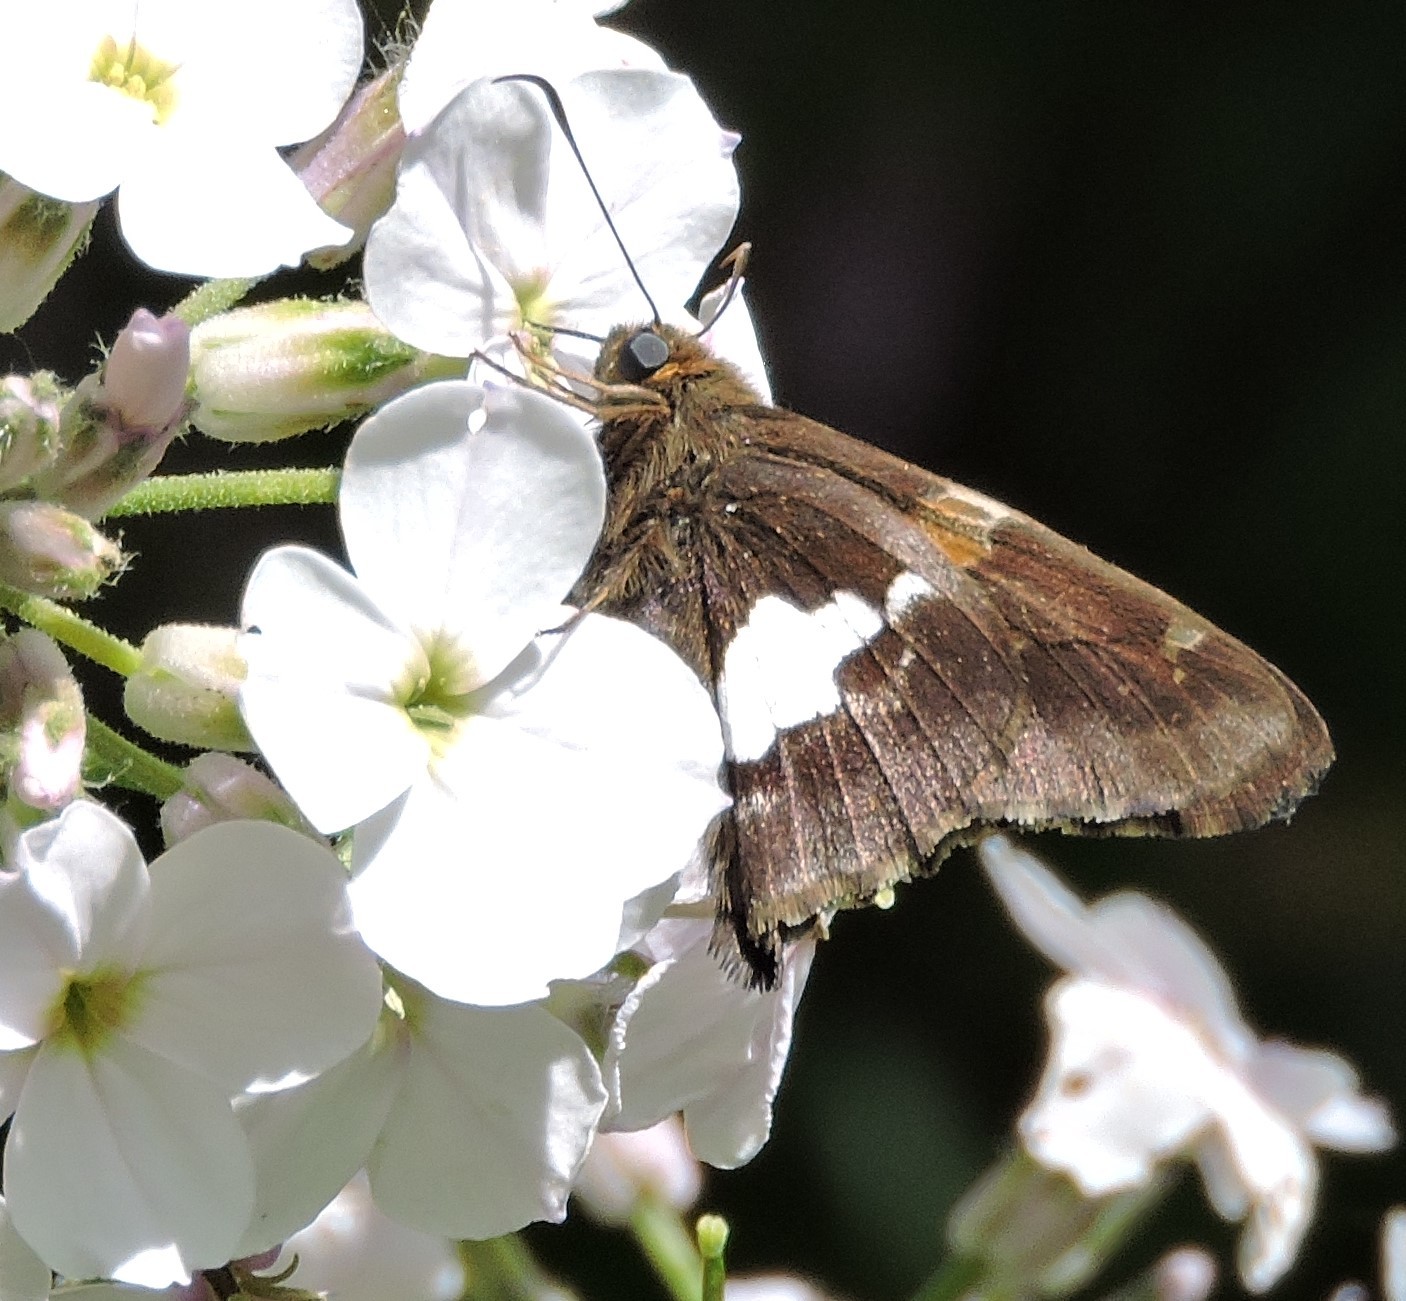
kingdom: Animalia
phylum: Arthropoda
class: Insecta
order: Lepidoptera
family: Hesperiidae
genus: Epargyreus
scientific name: Epargyreus clarus
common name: Silver-spotted skipper
